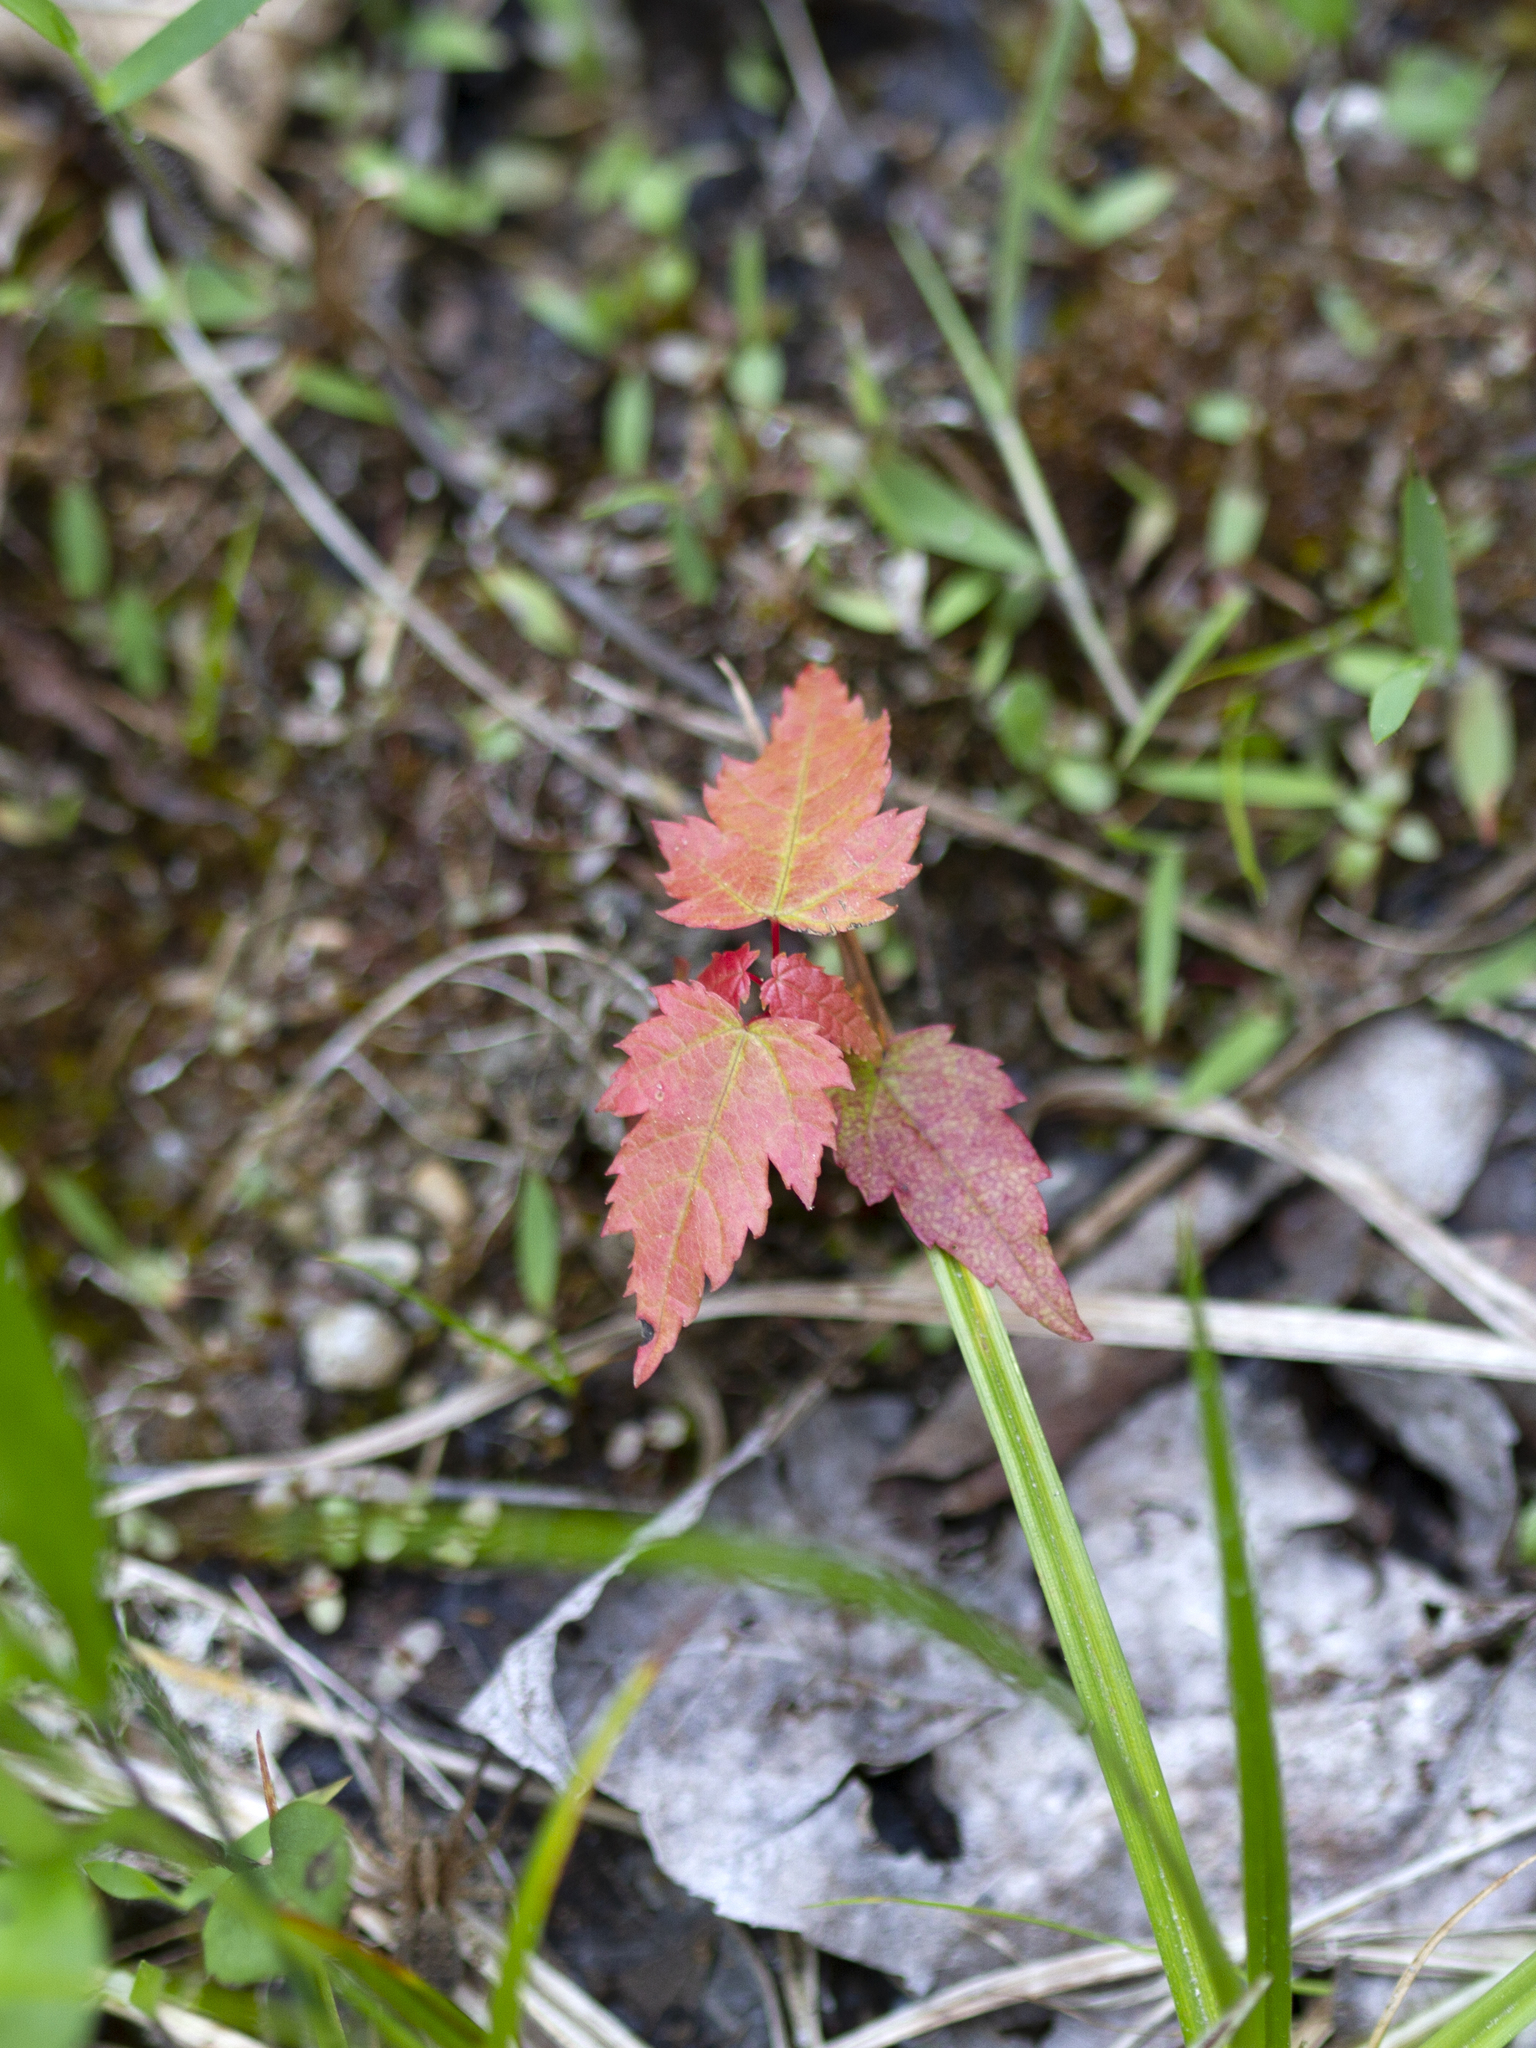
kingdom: Plantae
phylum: Tracheophyta
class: Magnoliopsida
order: Sapindales
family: Sapindaceae
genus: Acer
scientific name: Acer rubrum
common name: Red maple
